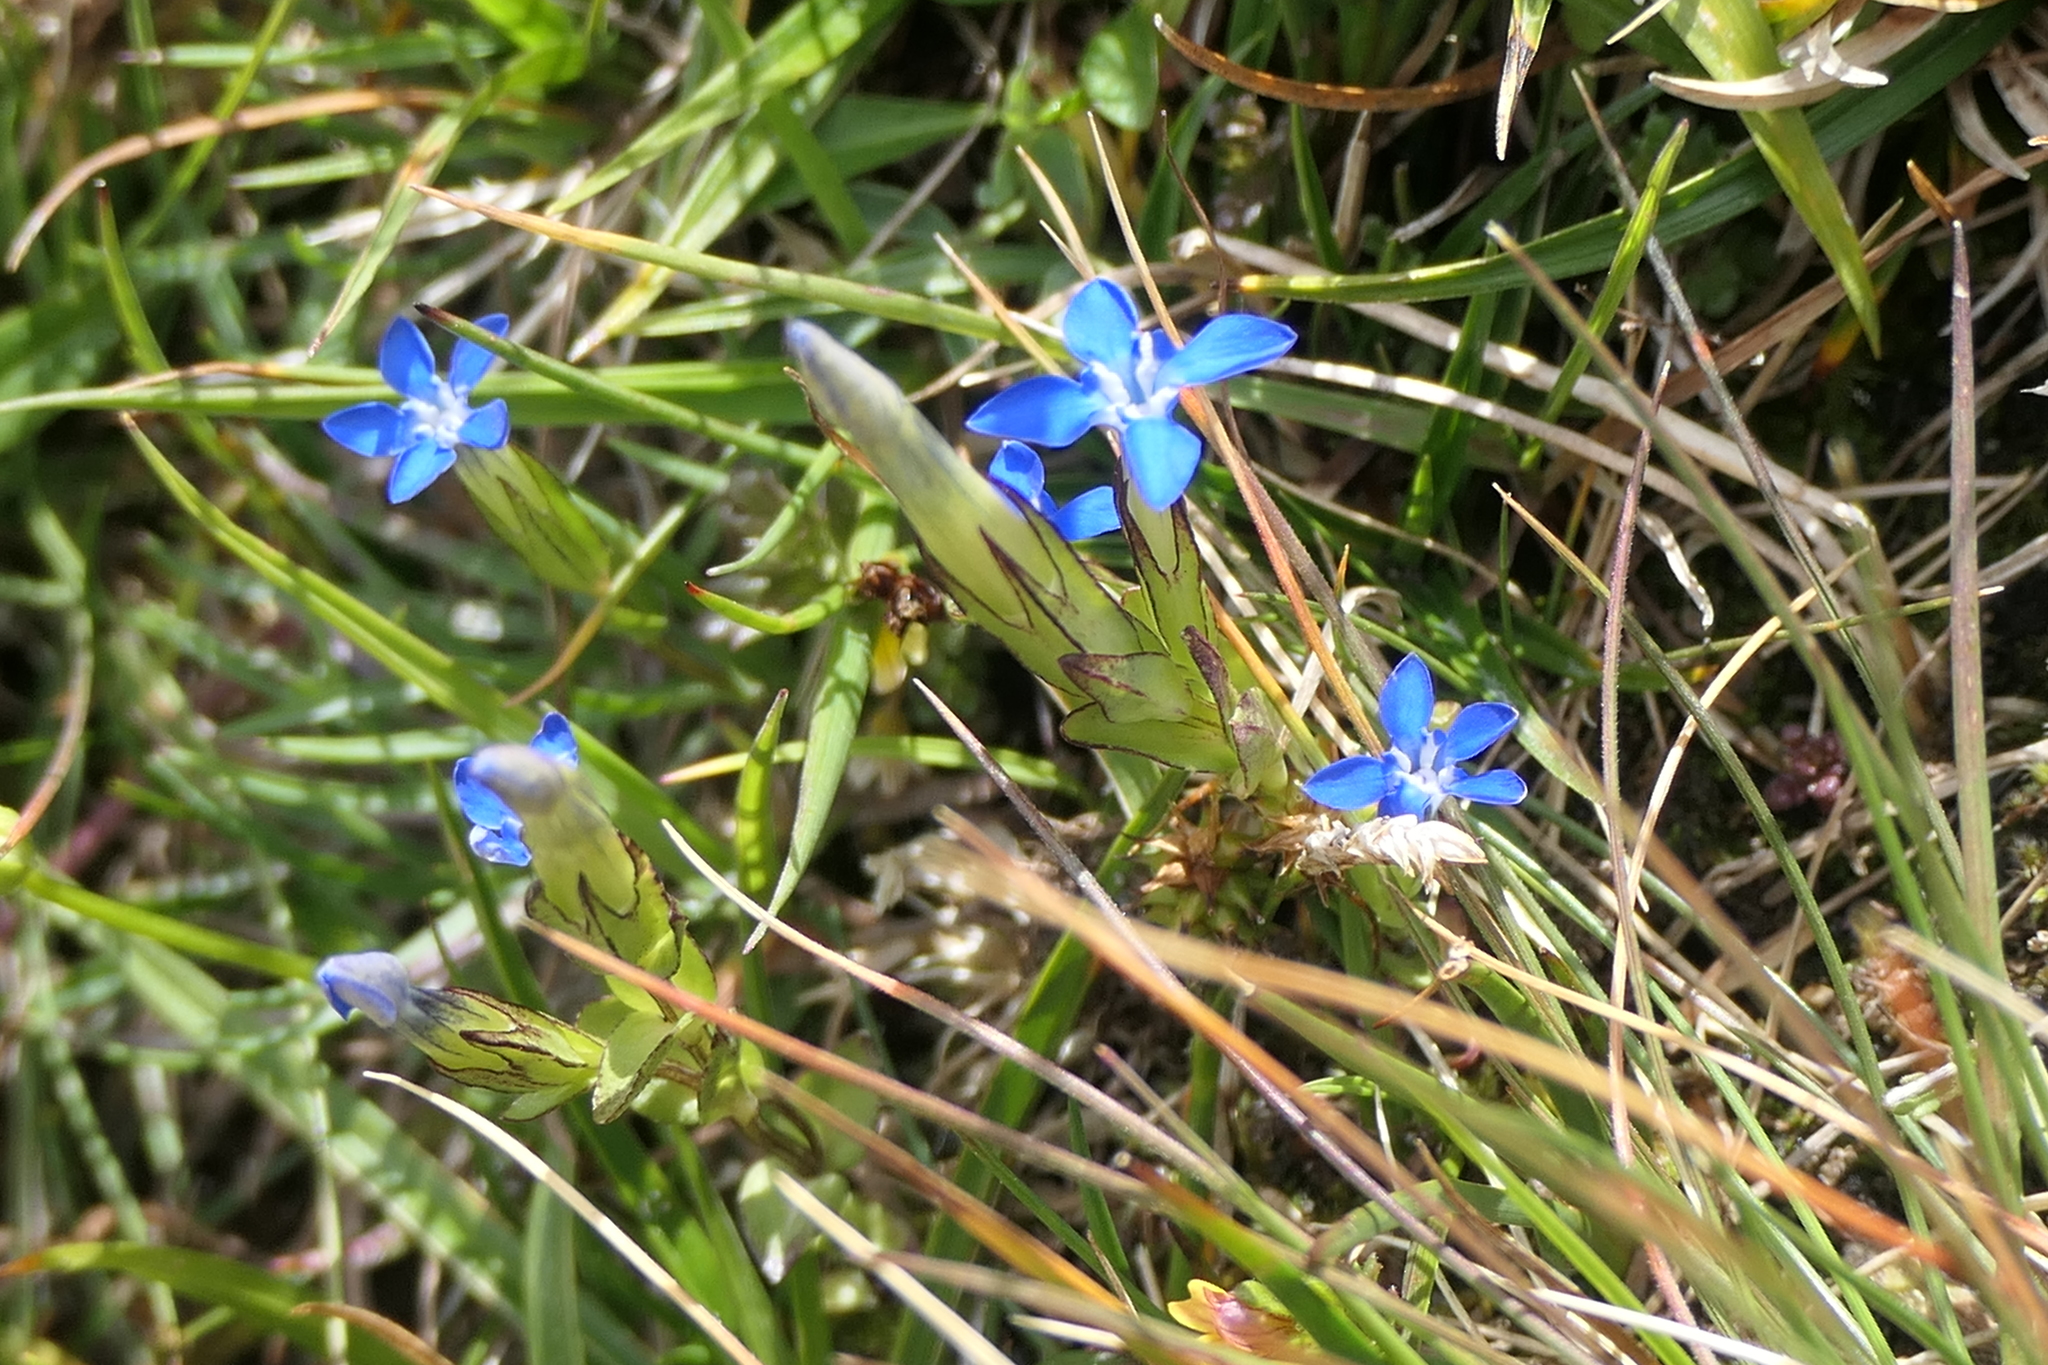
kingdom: Plantae
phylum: Tracheophyta
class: Magnoliopsida
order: Gentianales
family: Gentianaceae
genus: Gentiana
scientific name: Gentiana nivalis
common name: Alpine gentian
